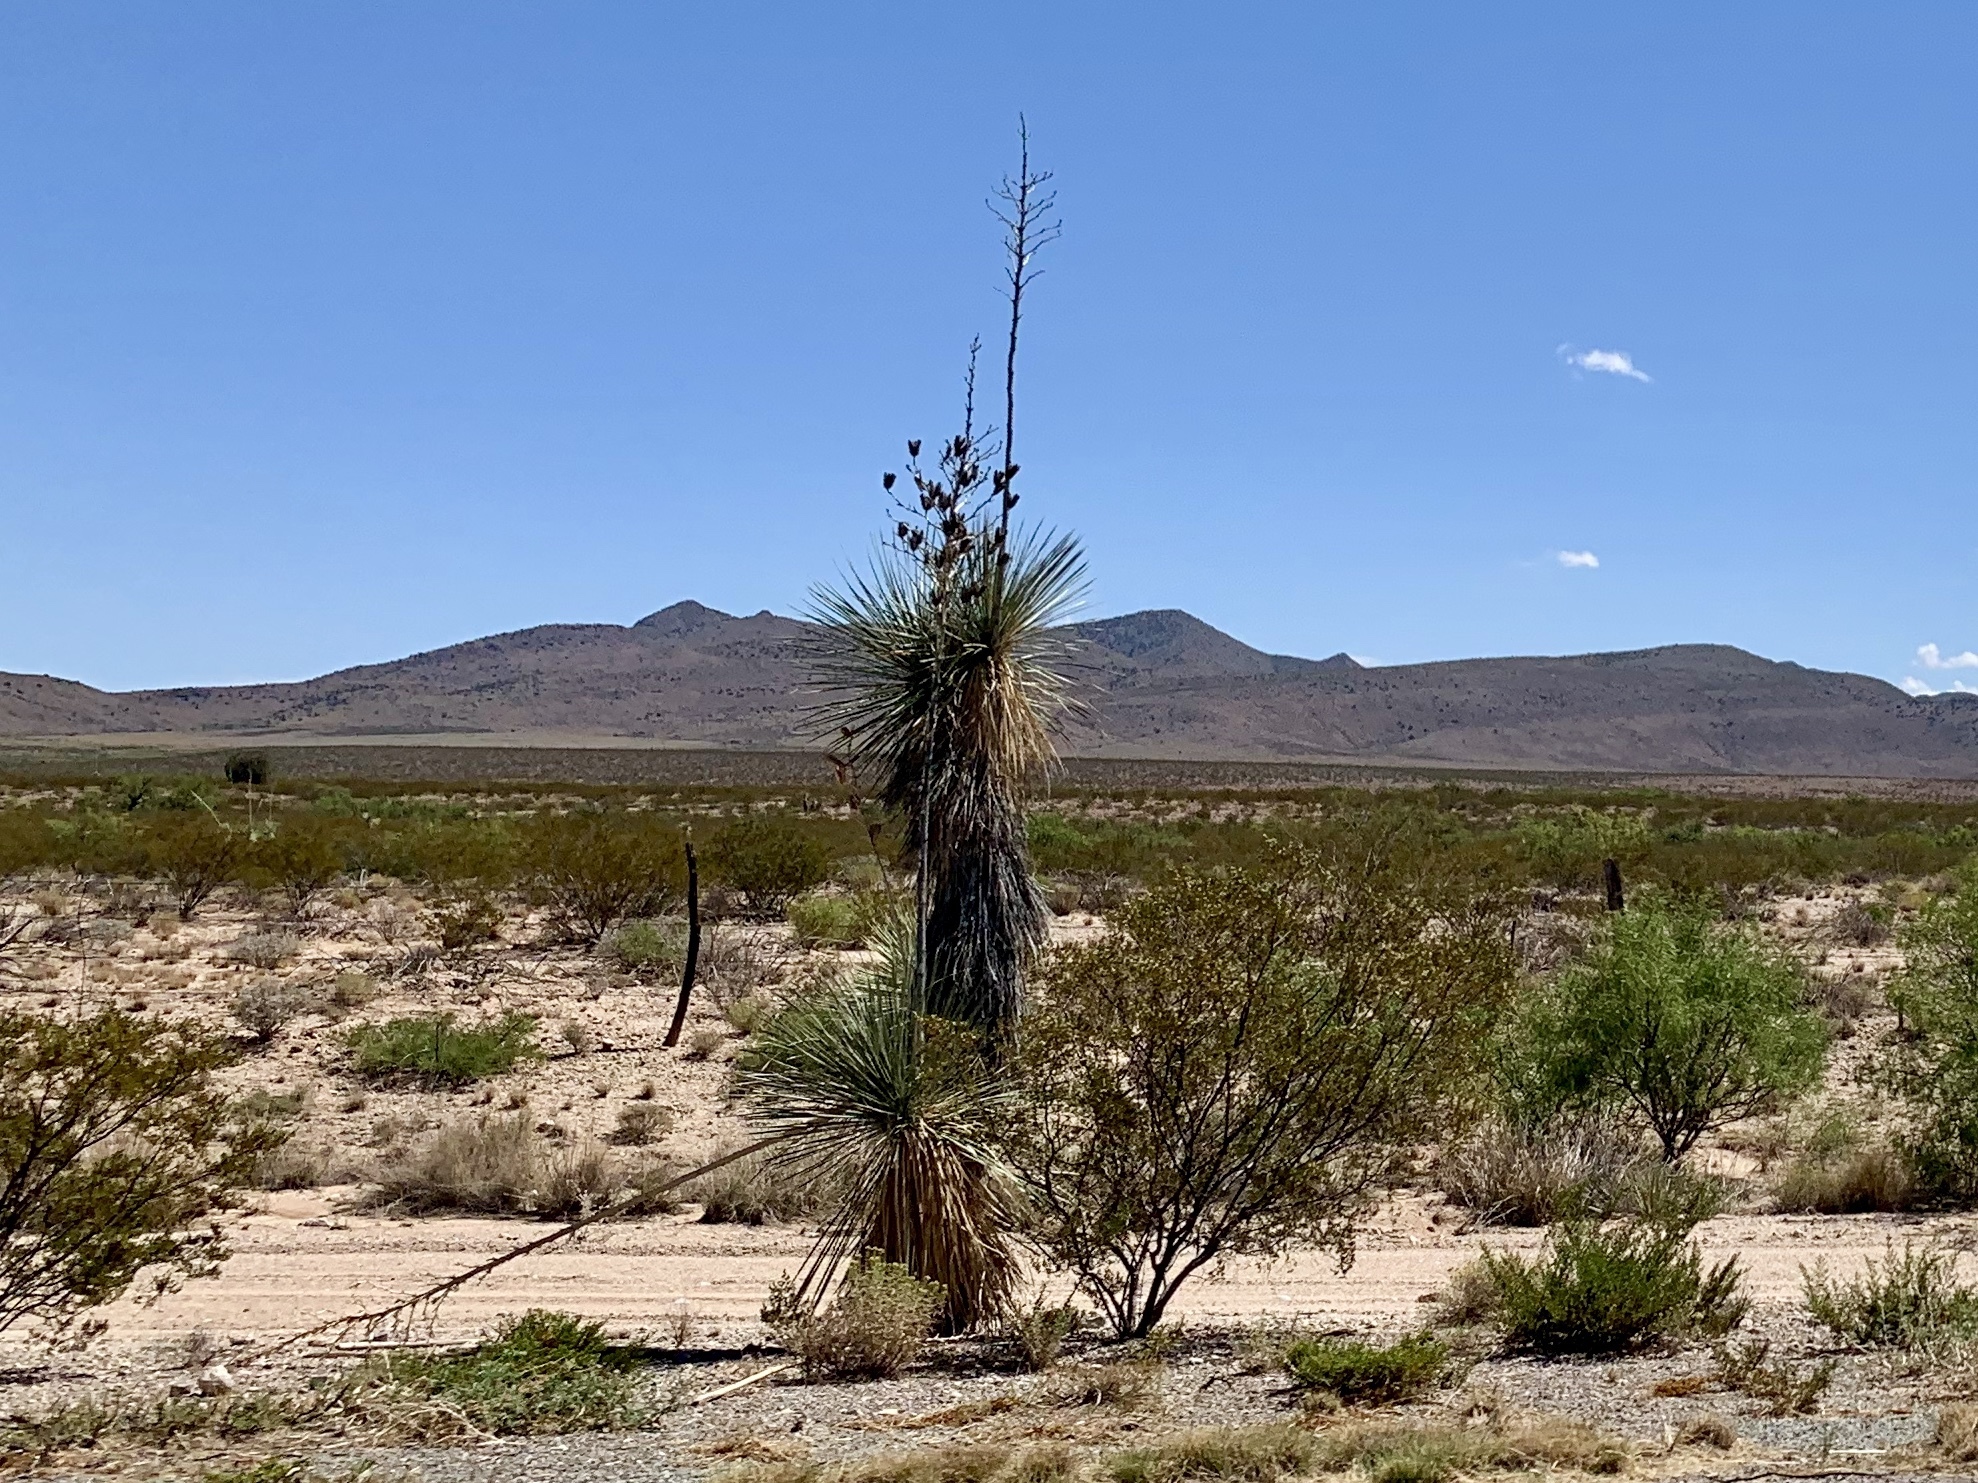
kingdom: Plantae
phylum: Tracheophyta
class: Liliopsida
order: Asparagales
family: Asparagaceae
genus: Yucca
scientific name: Yucca elata
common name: Palmella
